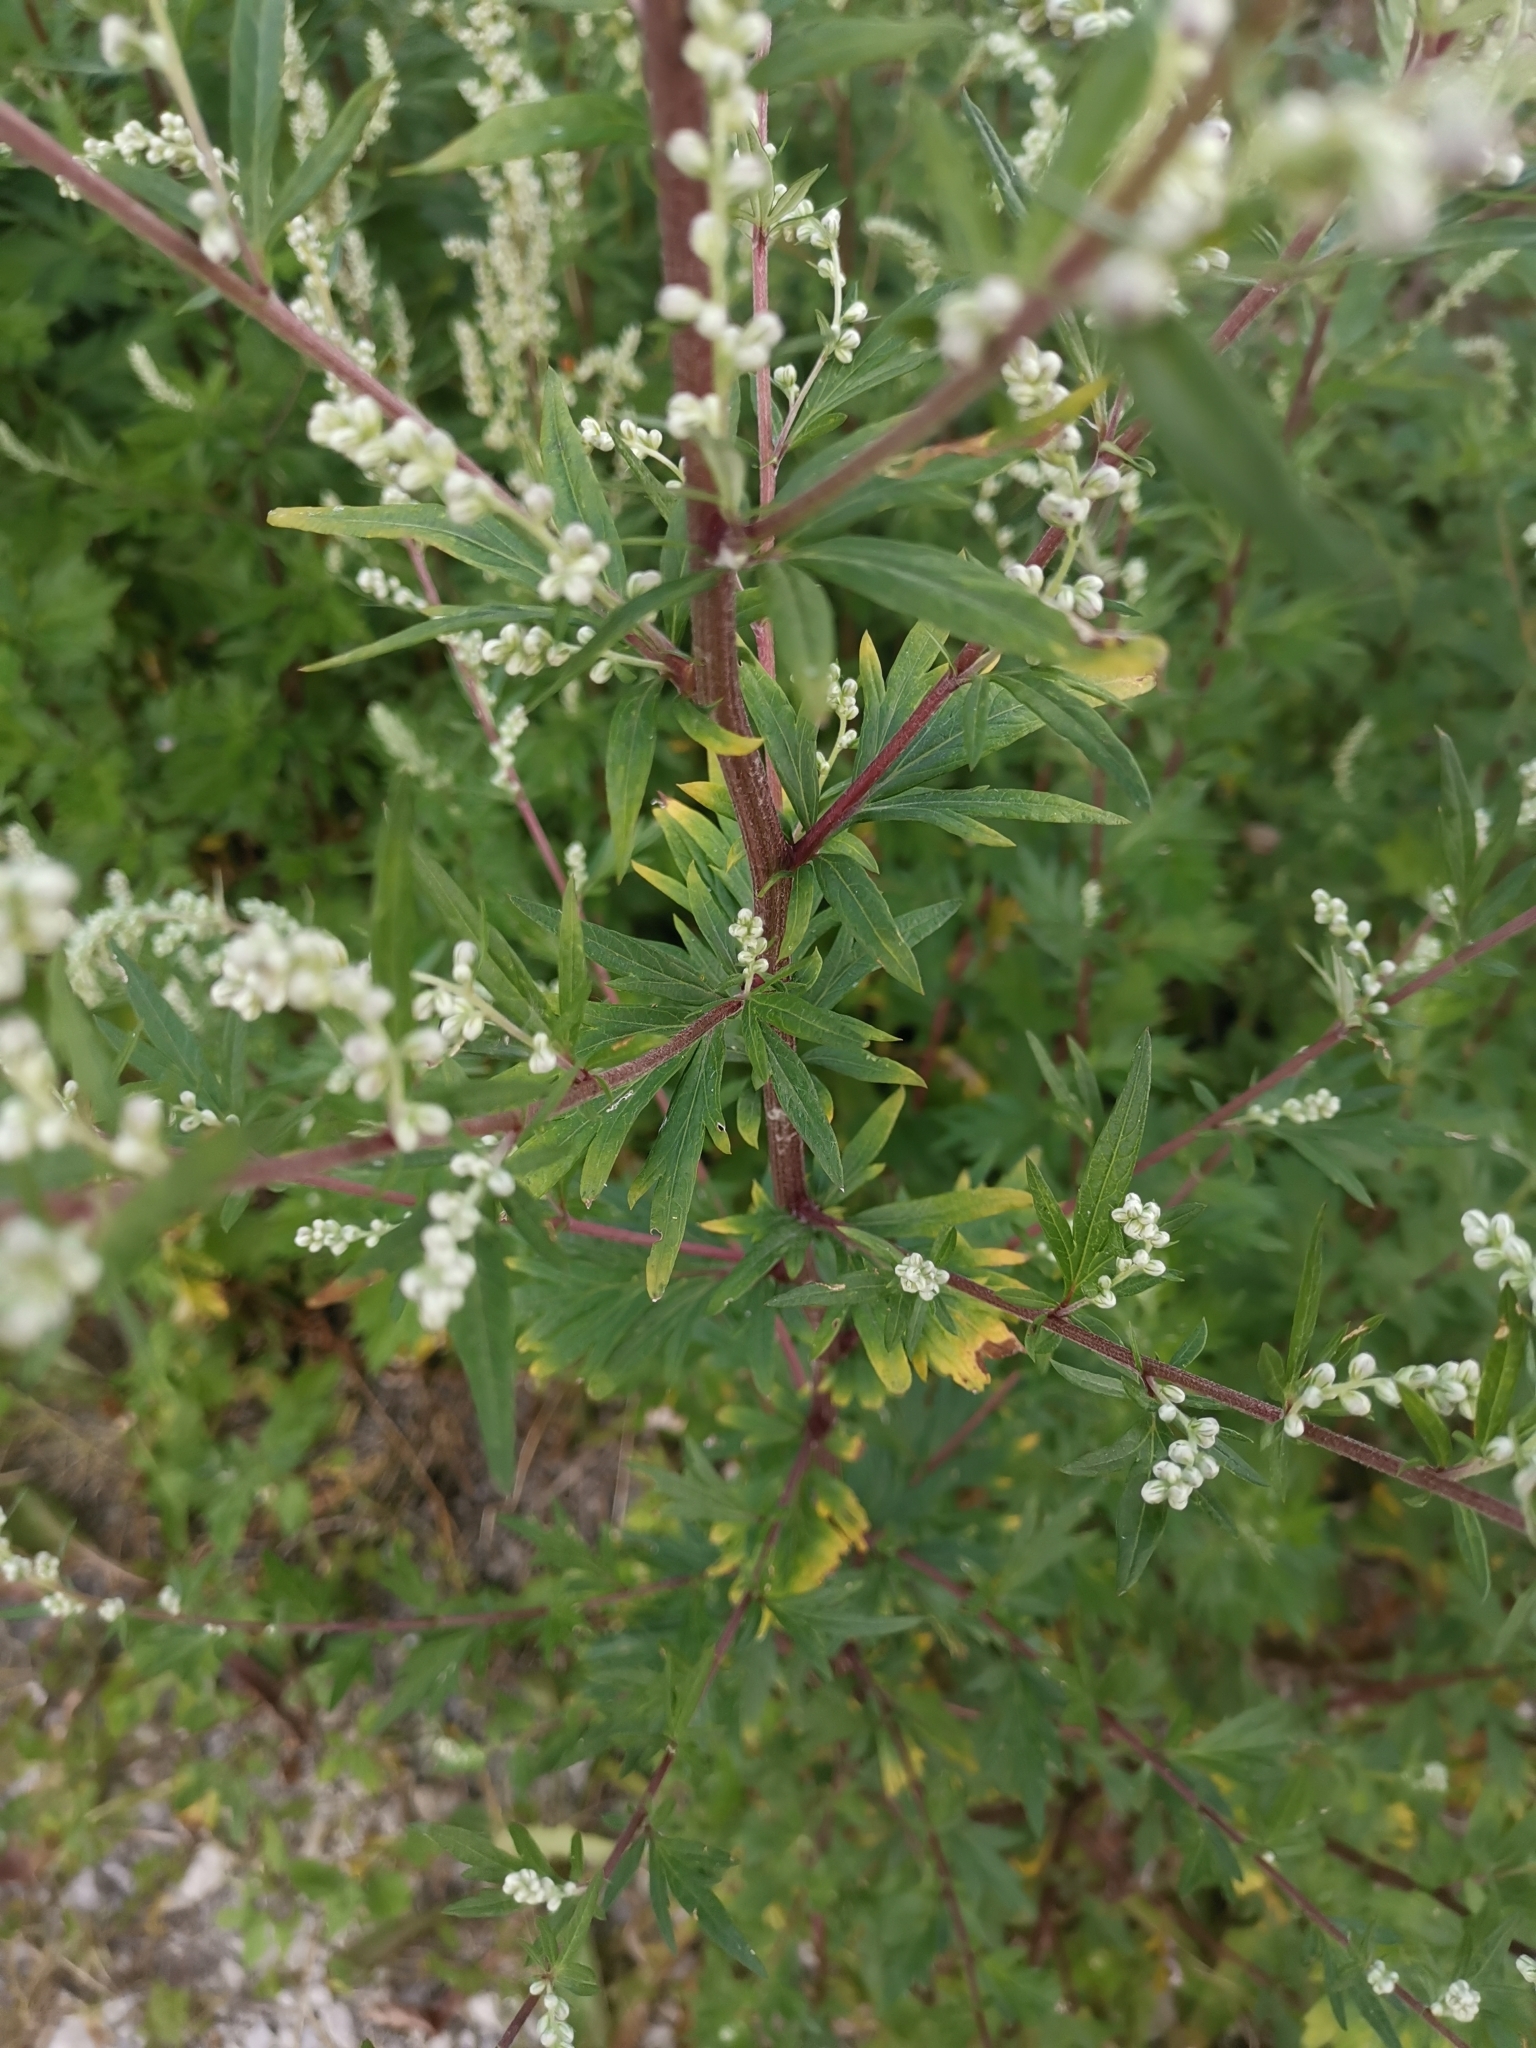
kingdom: Plantae
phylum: Tracheophyta
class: Magnoliopsida
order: Asterales
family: Asteraceae
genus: Artemisia
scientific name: Artemisia vulgaris
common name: Mugwort
